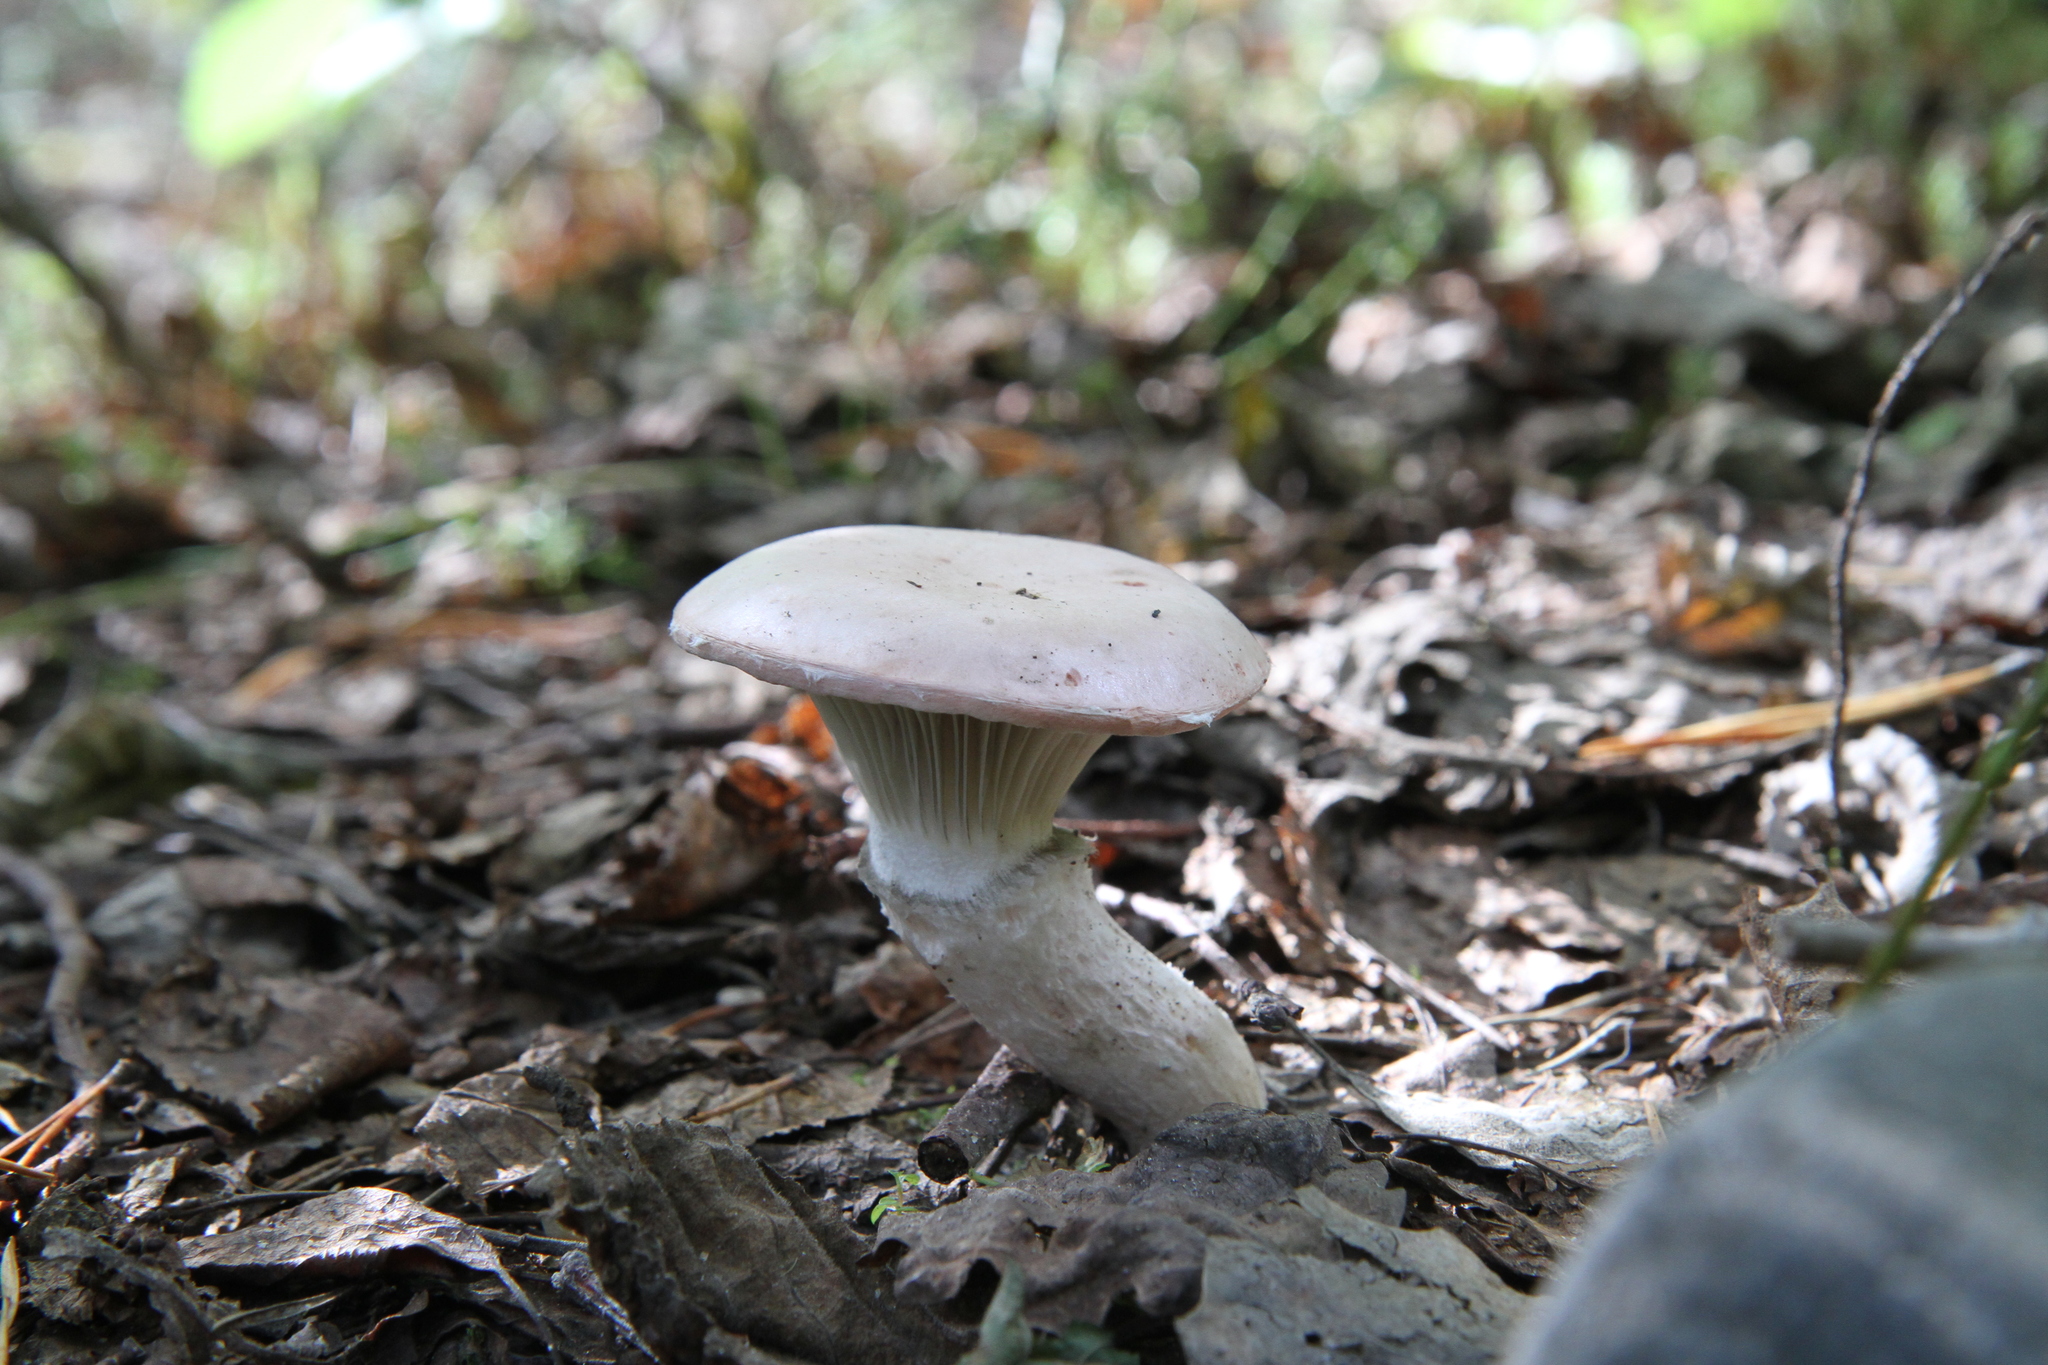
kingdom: Fungi
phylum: Basidiomycota
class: Agaricomycetes
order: Boletales
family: Gomphidiaceae
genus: Gomphidius
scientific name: Gomphidius glutinosus
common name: Slimy spike
